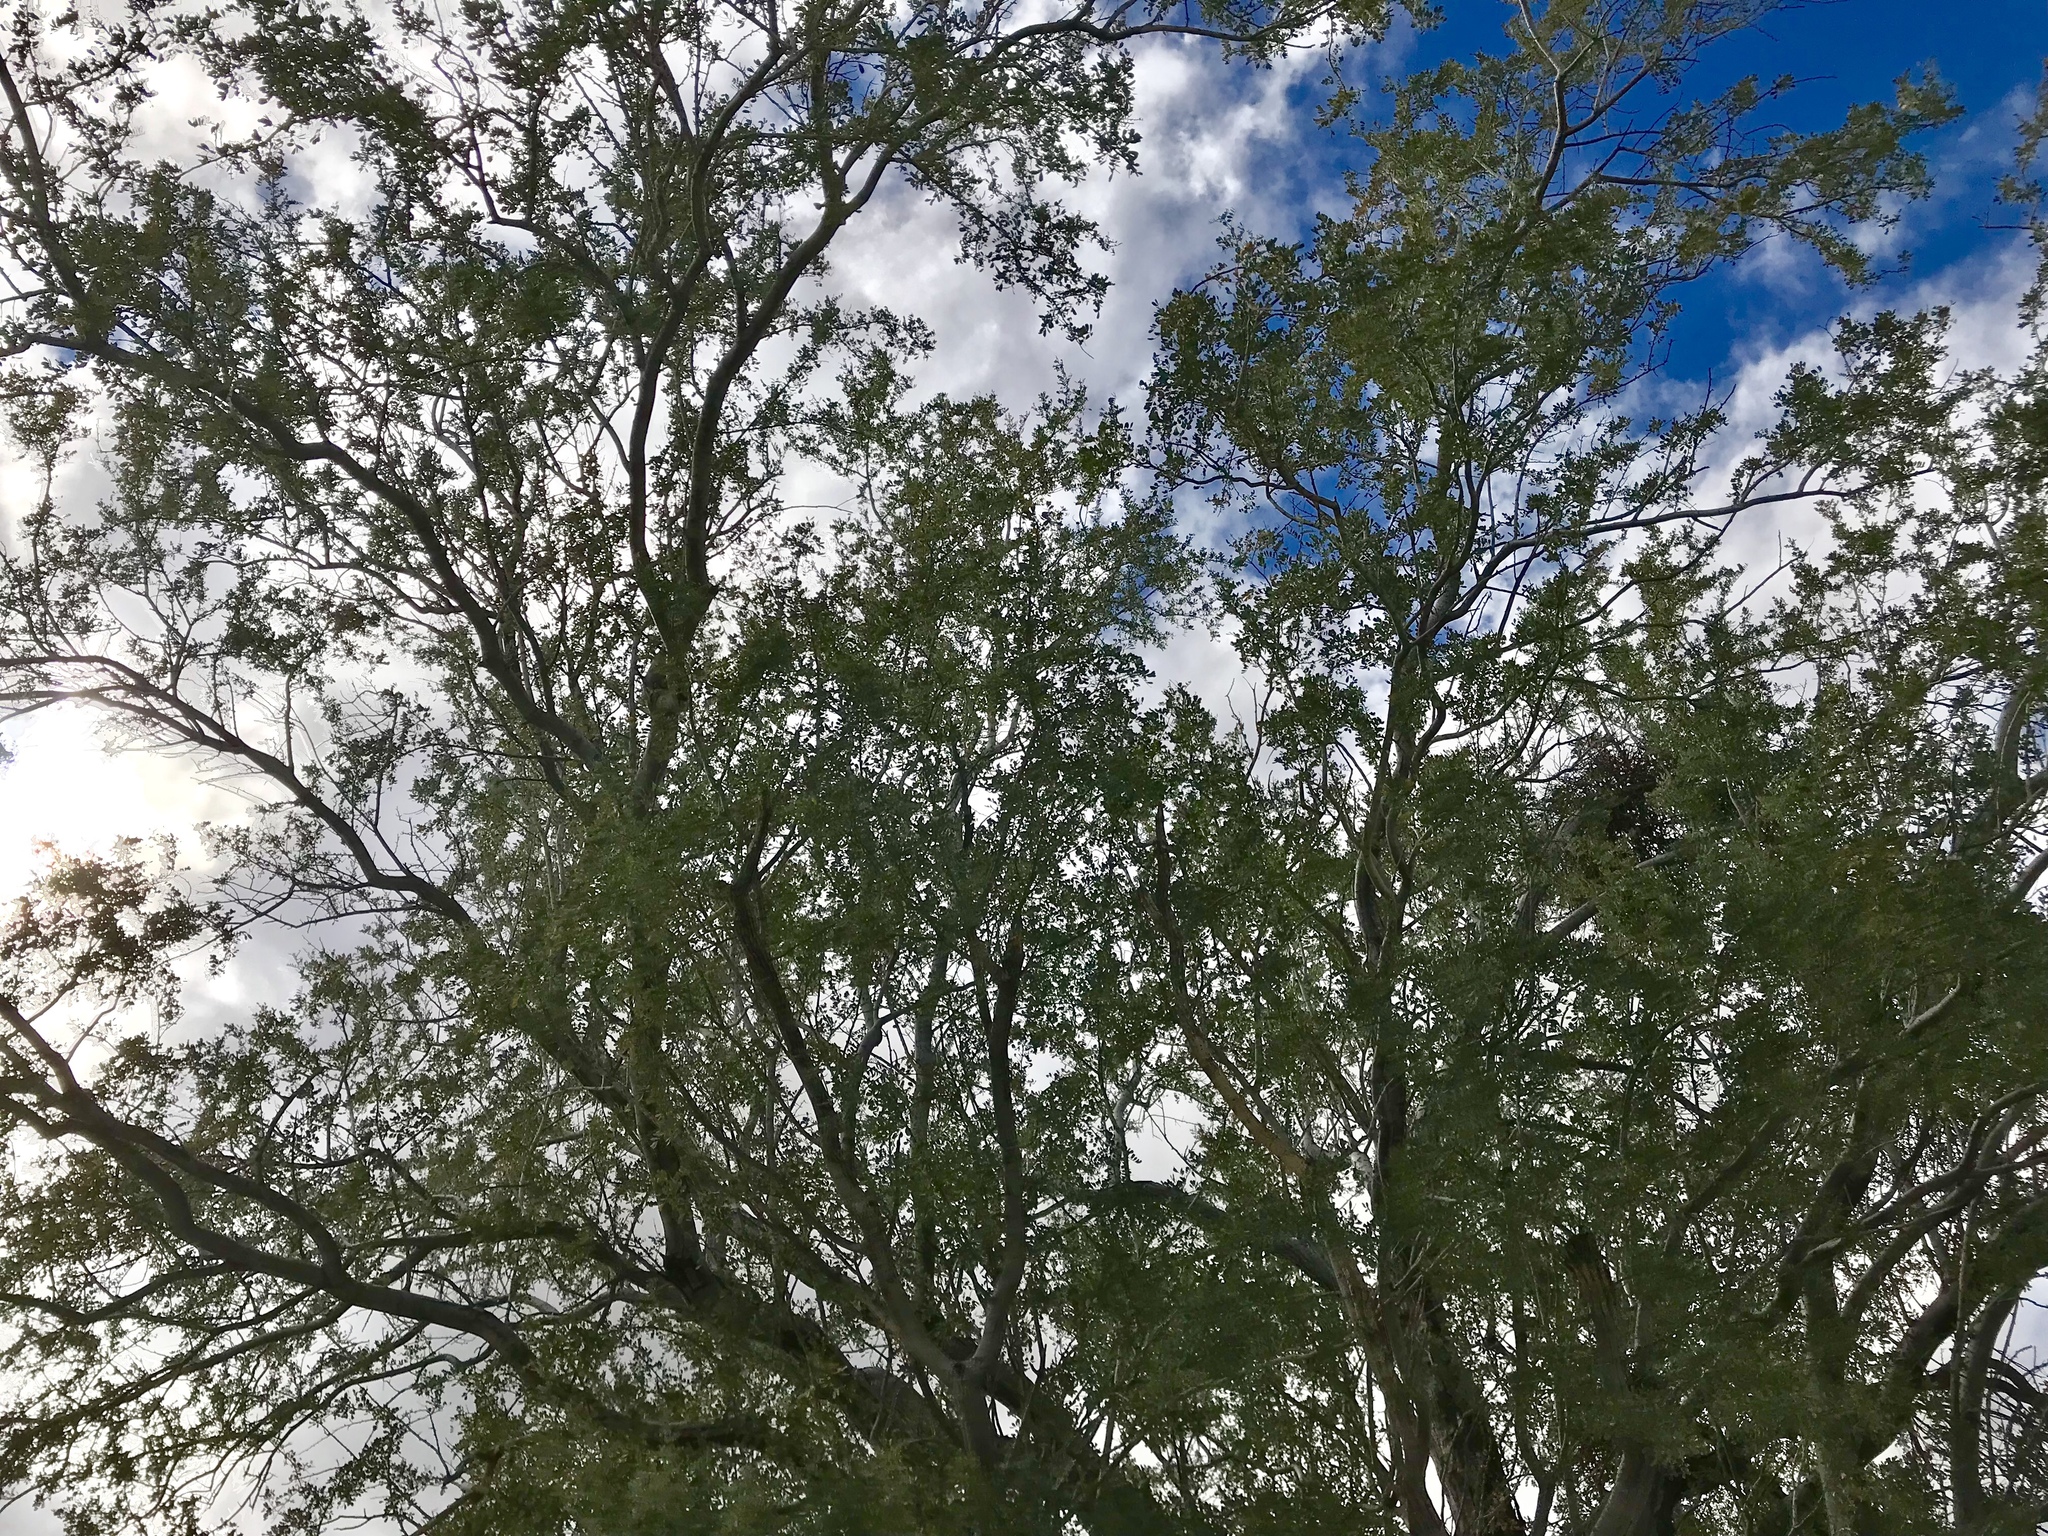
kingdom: Plantae
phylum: Tracheophyta
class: Magnoliopsida
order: Fabales
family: Fabaceae
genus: Olneya
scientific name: Olneya tesota
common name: Desert ironwood
